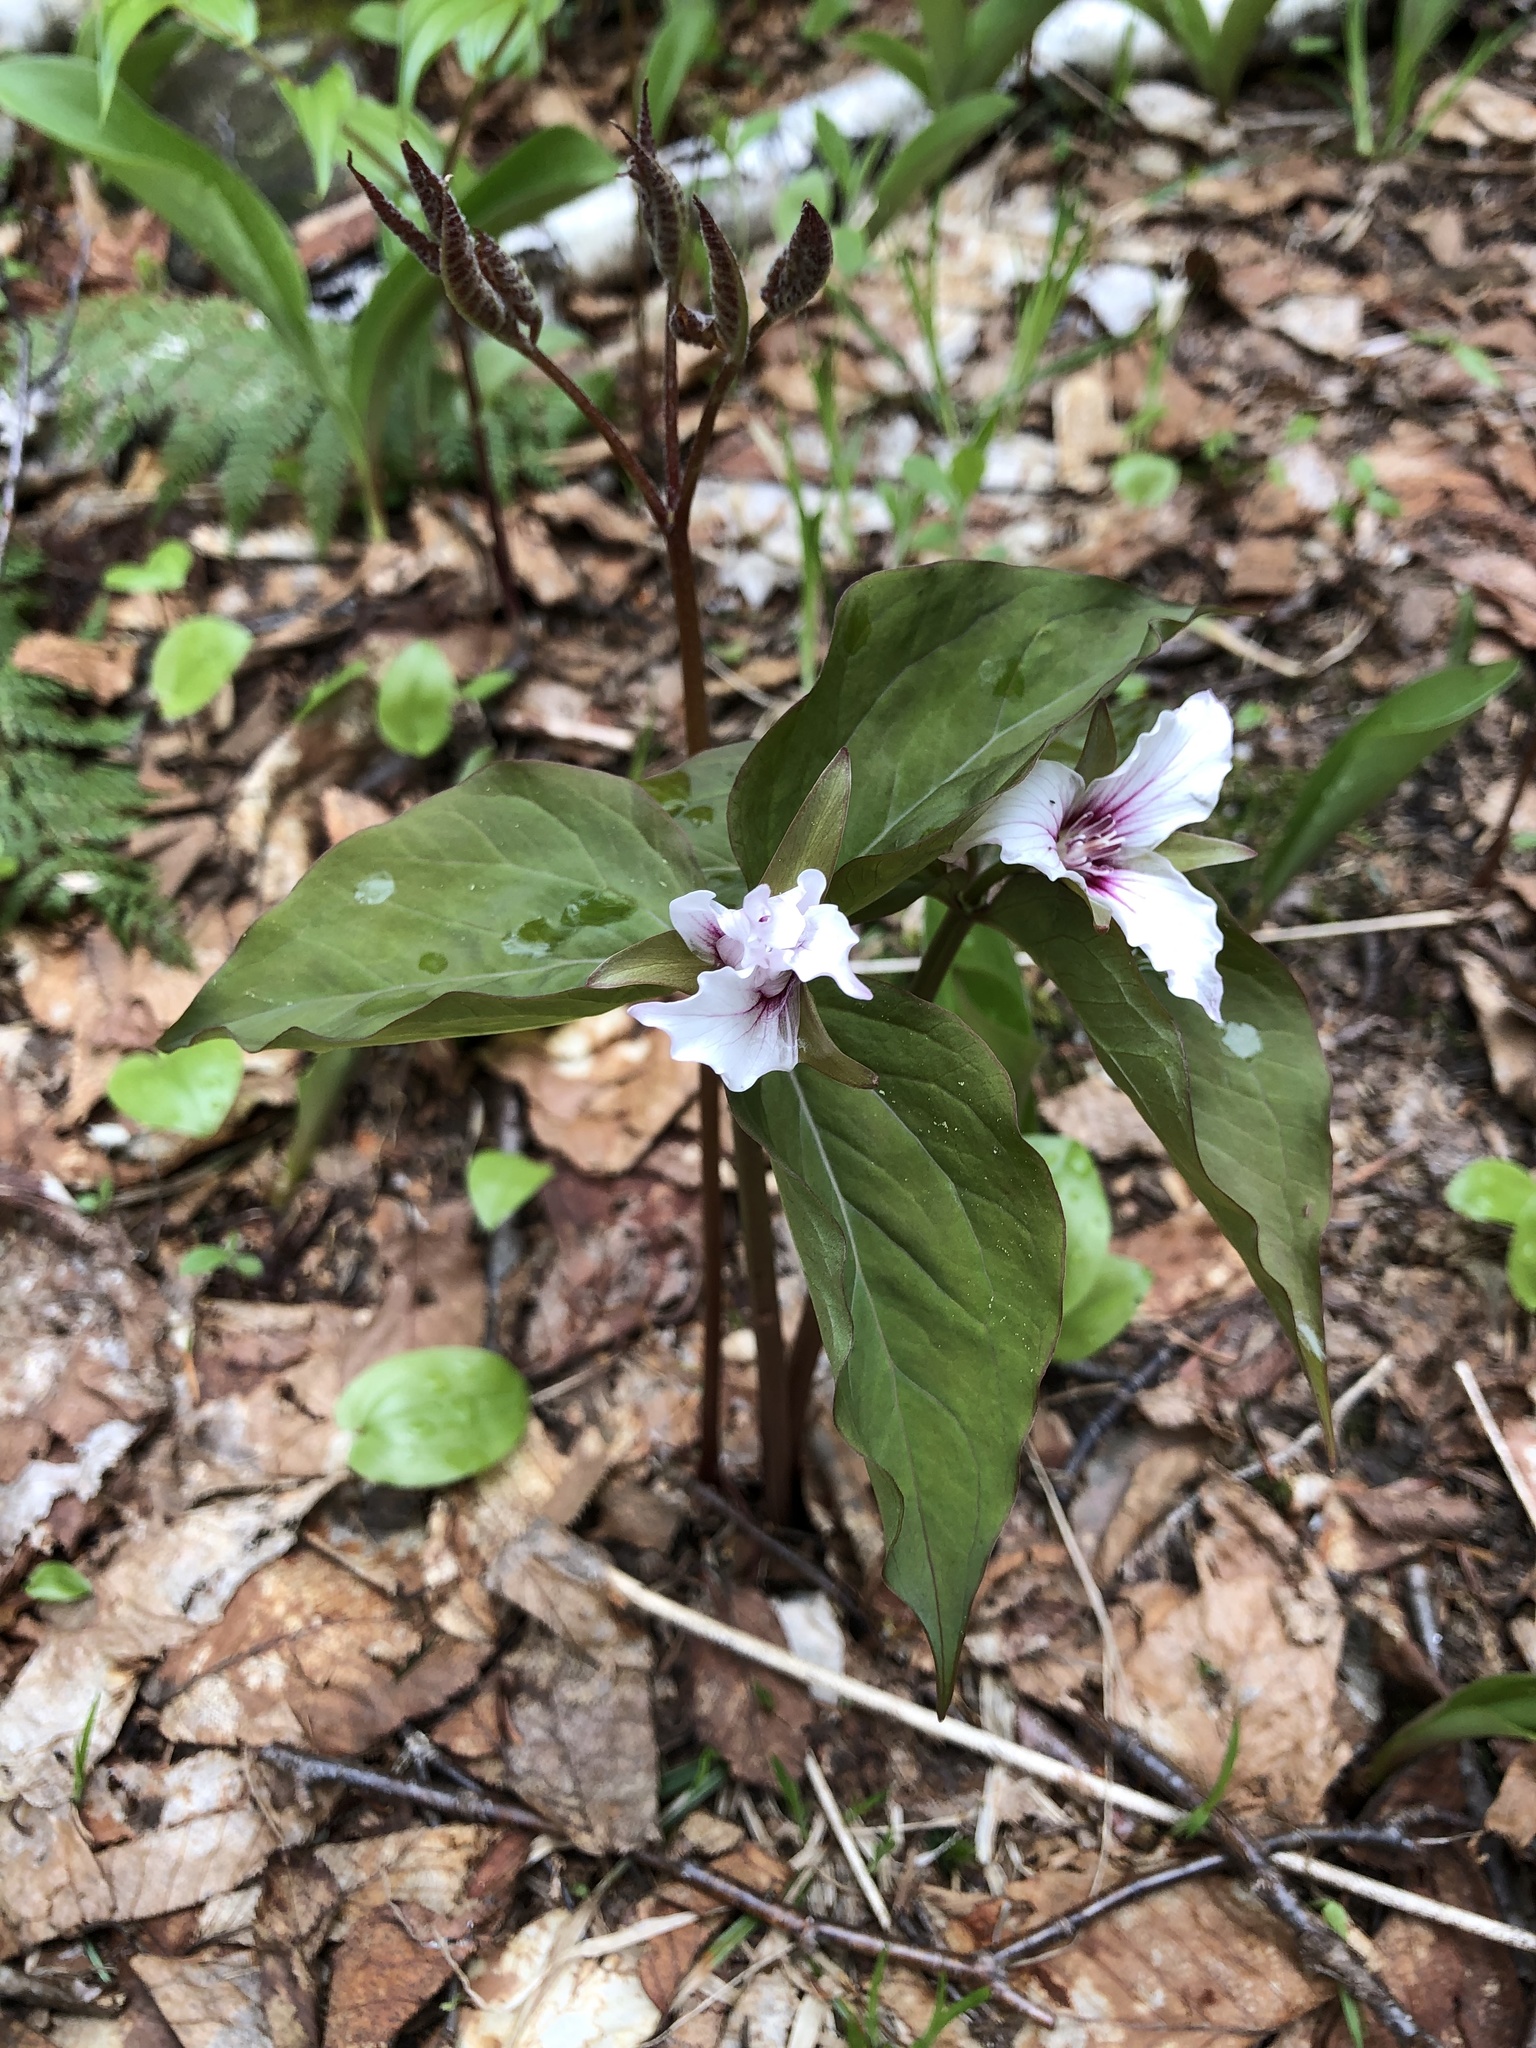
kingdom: Plantae
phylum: Tracheophyta
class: Liliopsida
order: Liliales
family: Melanthiaceae
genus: Trillium
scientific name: Trillium undulatum
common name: Paint trillium
